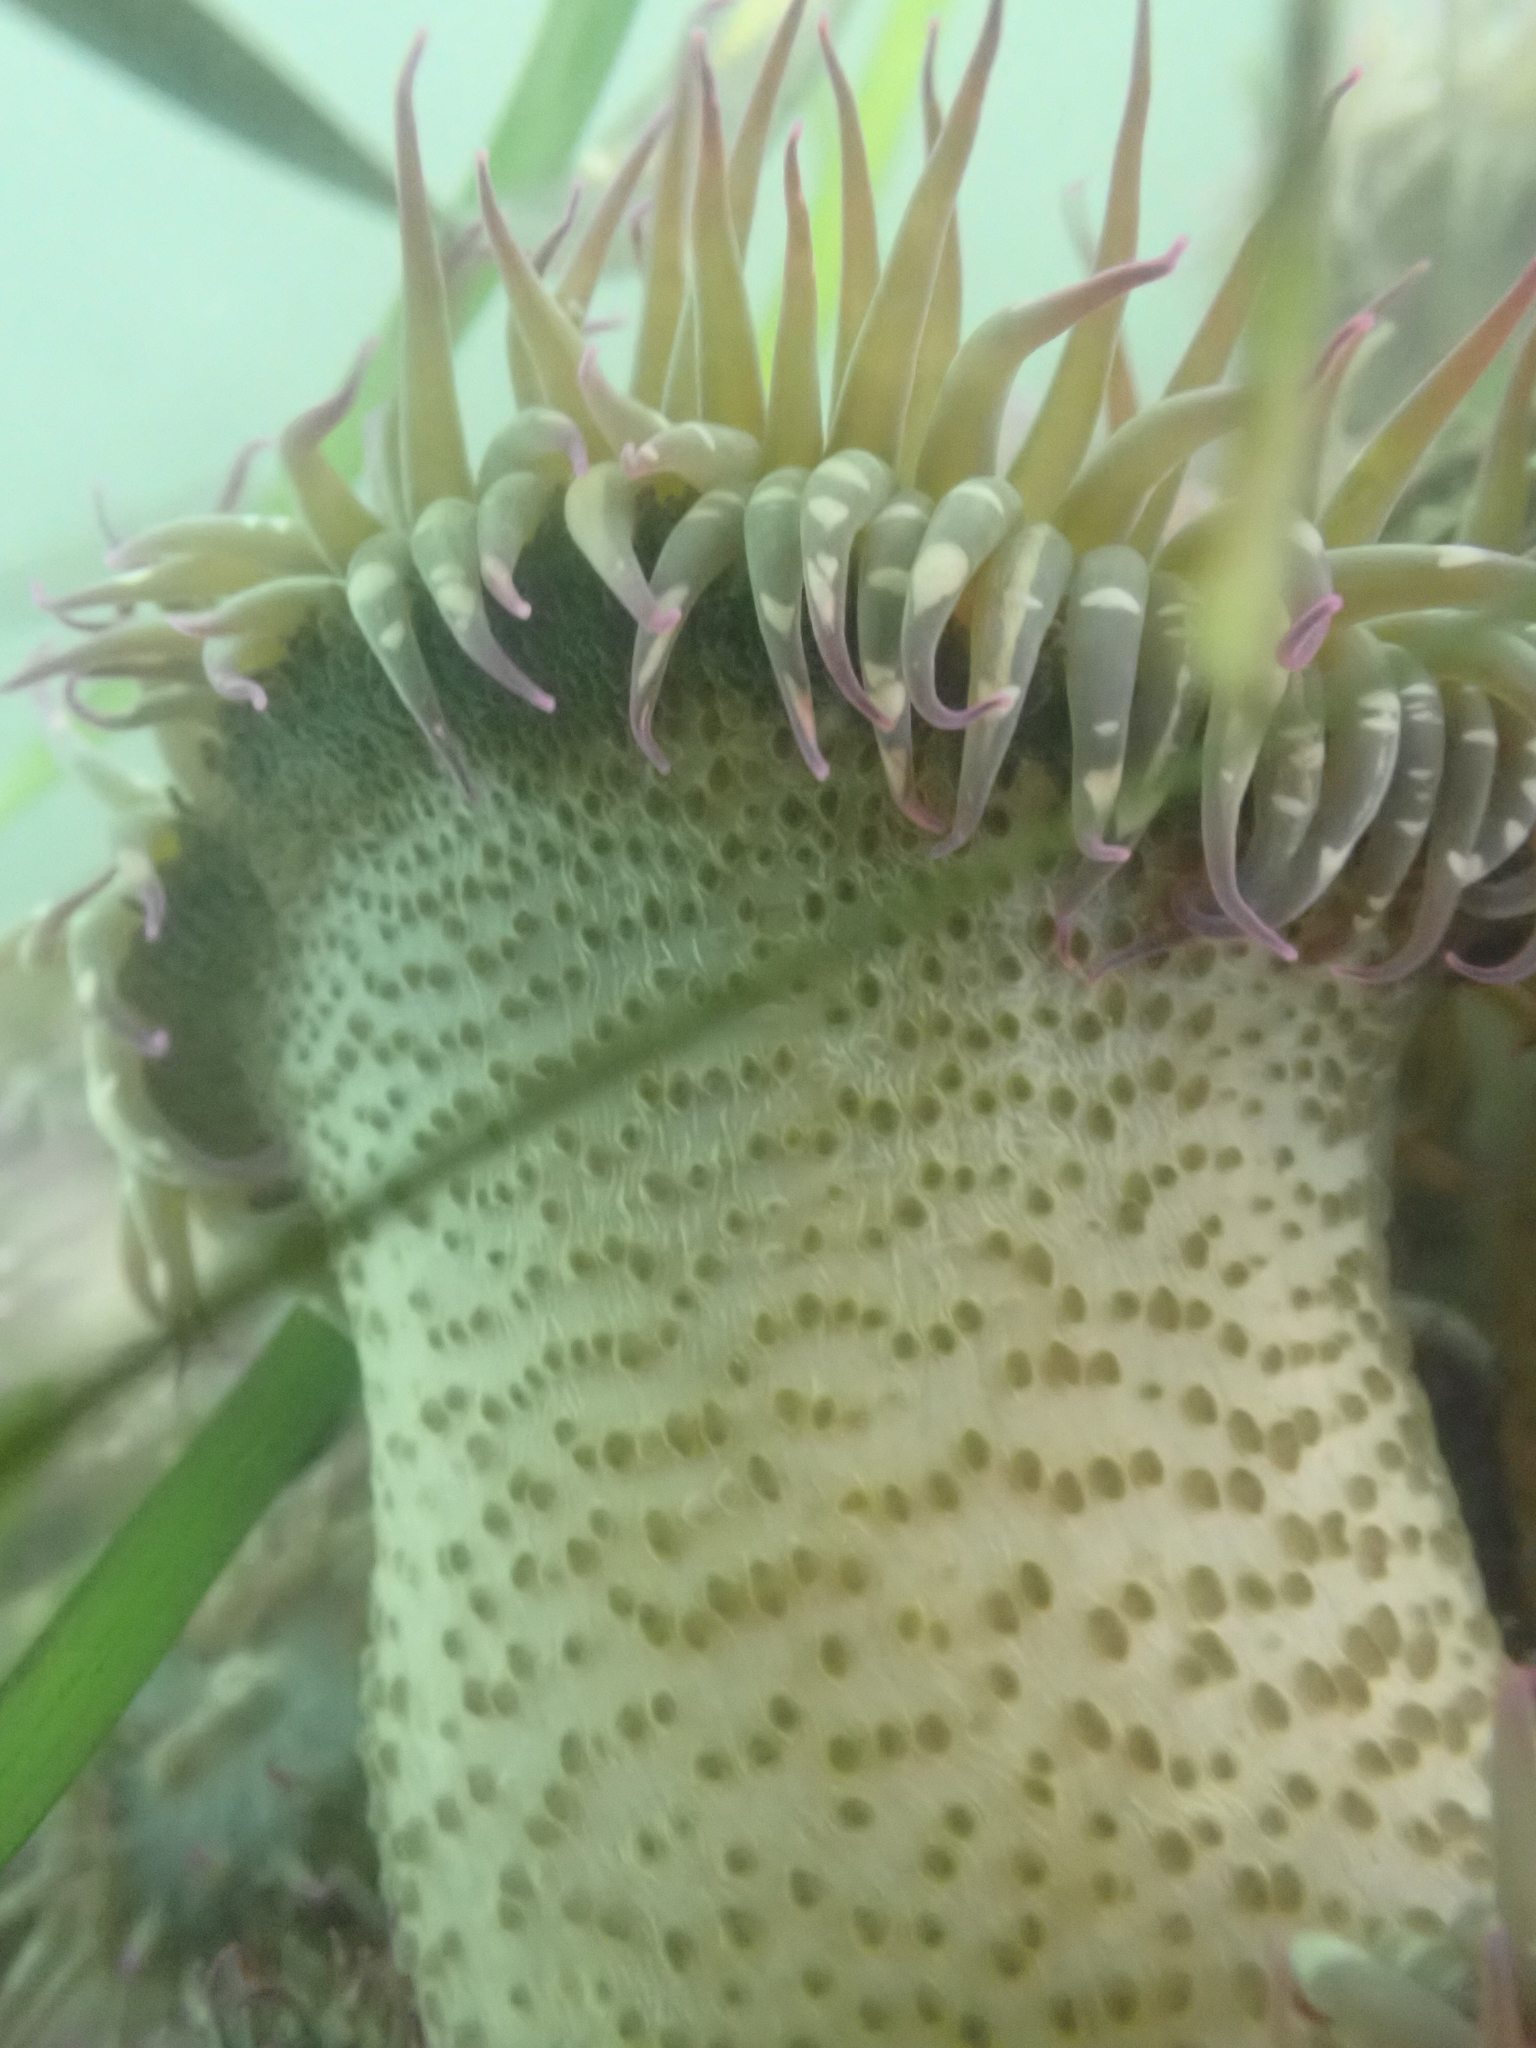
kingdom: Animalia
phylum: Cnidaria
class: Anthozoa
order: Actiniaria
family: Actiniidae
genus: Anthopleura
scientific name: Anthopleura elegantissima
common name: Clonal anemone
